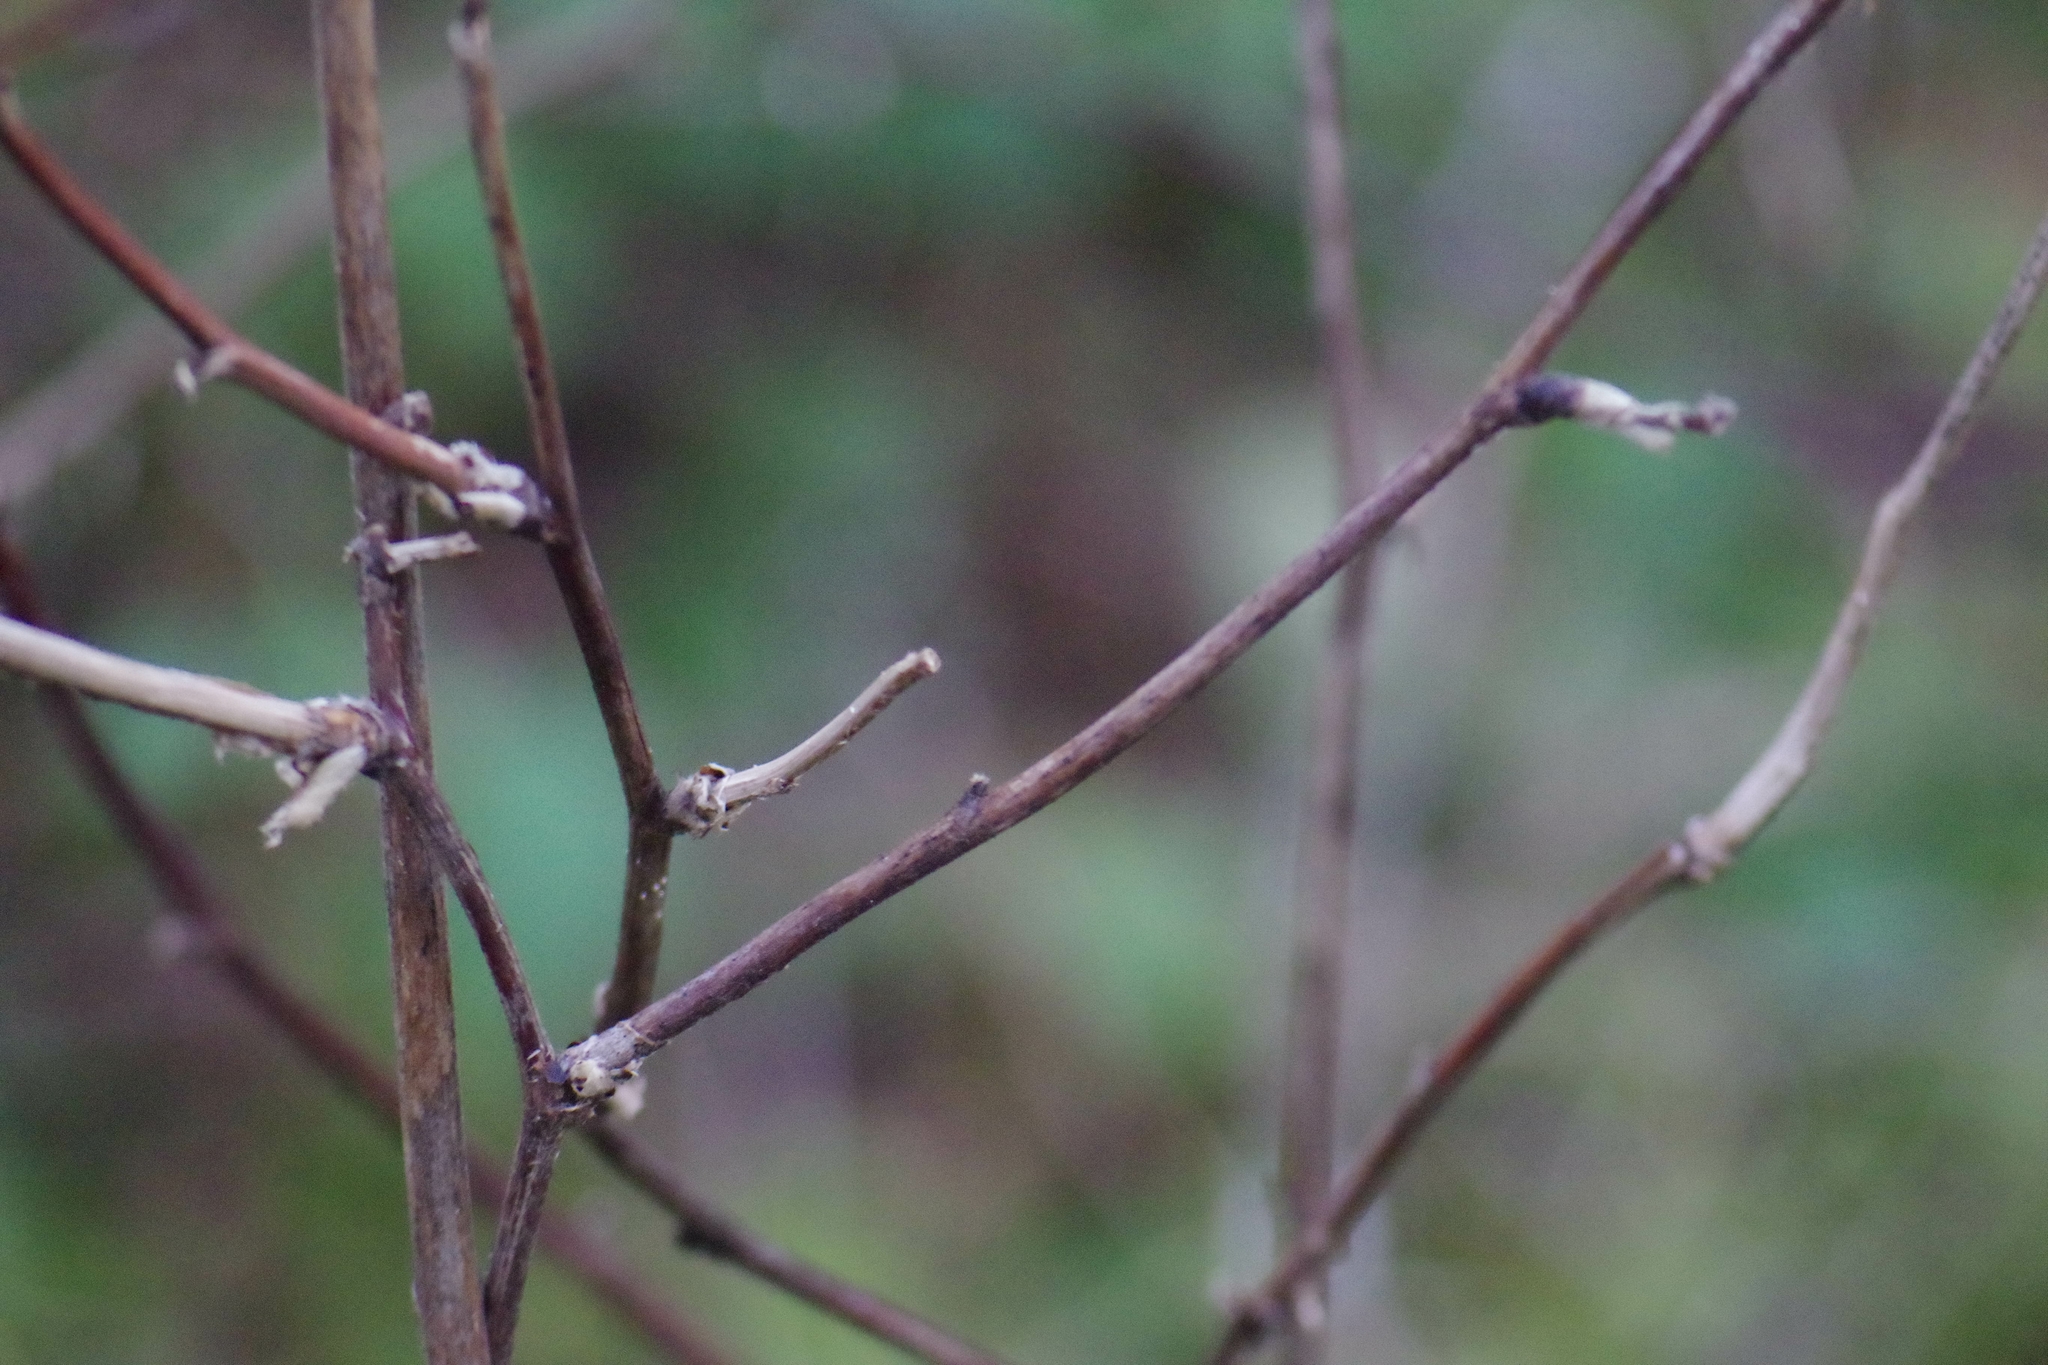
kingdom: Plantae
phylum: Tracheophyta
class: Magnoliopsida
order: Dipsacales
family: Caprifoliaceae
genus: Symphoricarpos
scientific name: Symphoricarpos albus
